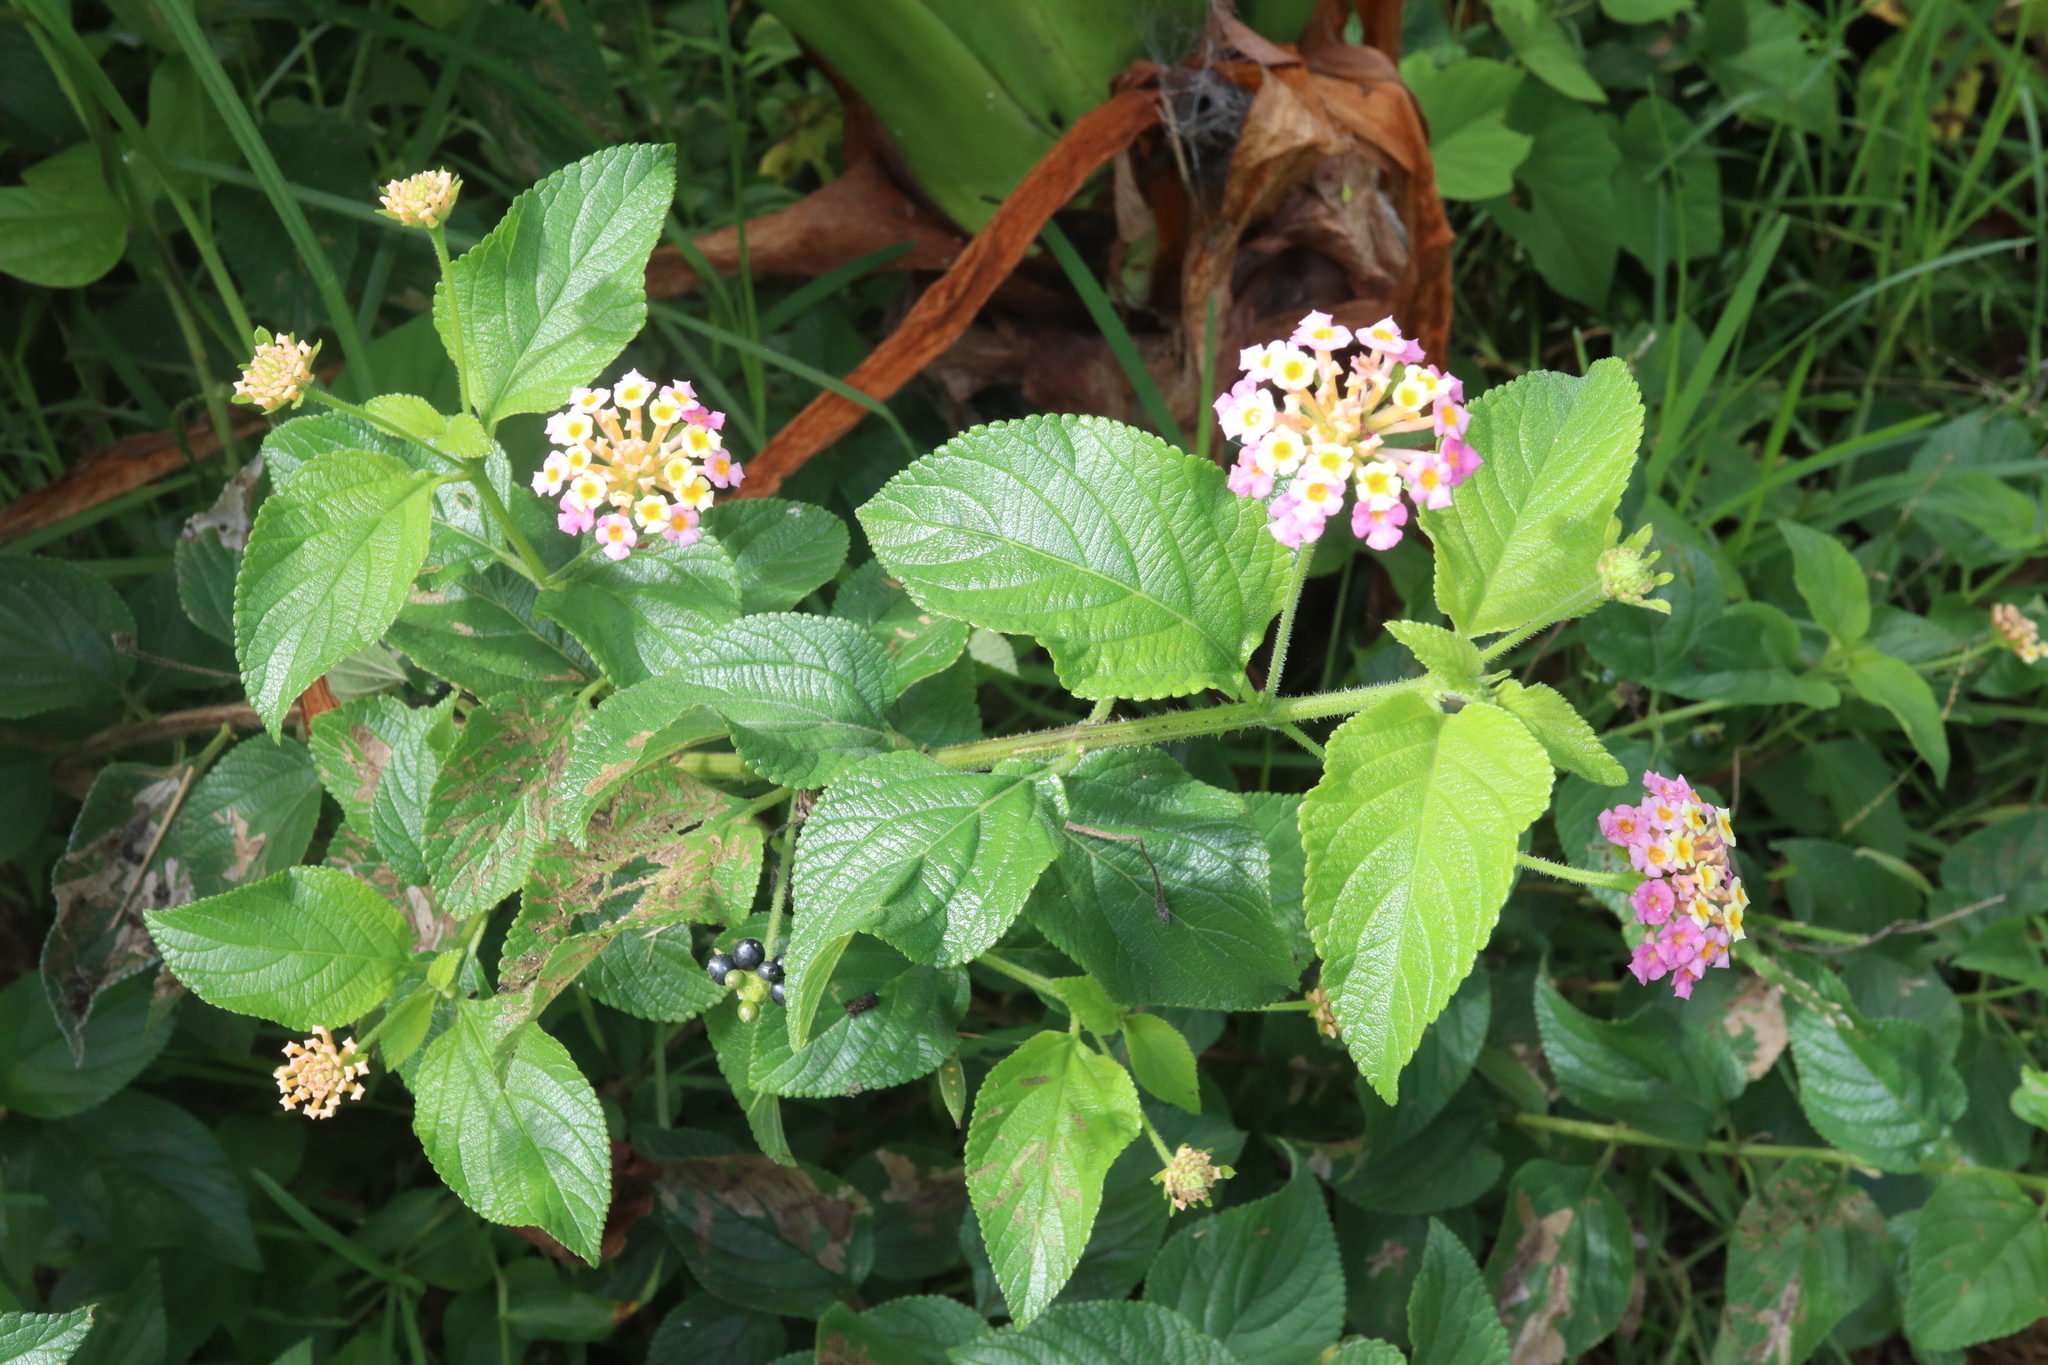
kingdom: Plantae
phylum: Tracheophyta
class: Magnoliopsida
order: Lamiales
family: Verbenaceae
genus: Lantana
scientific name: Lantana camara
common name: Lantana
